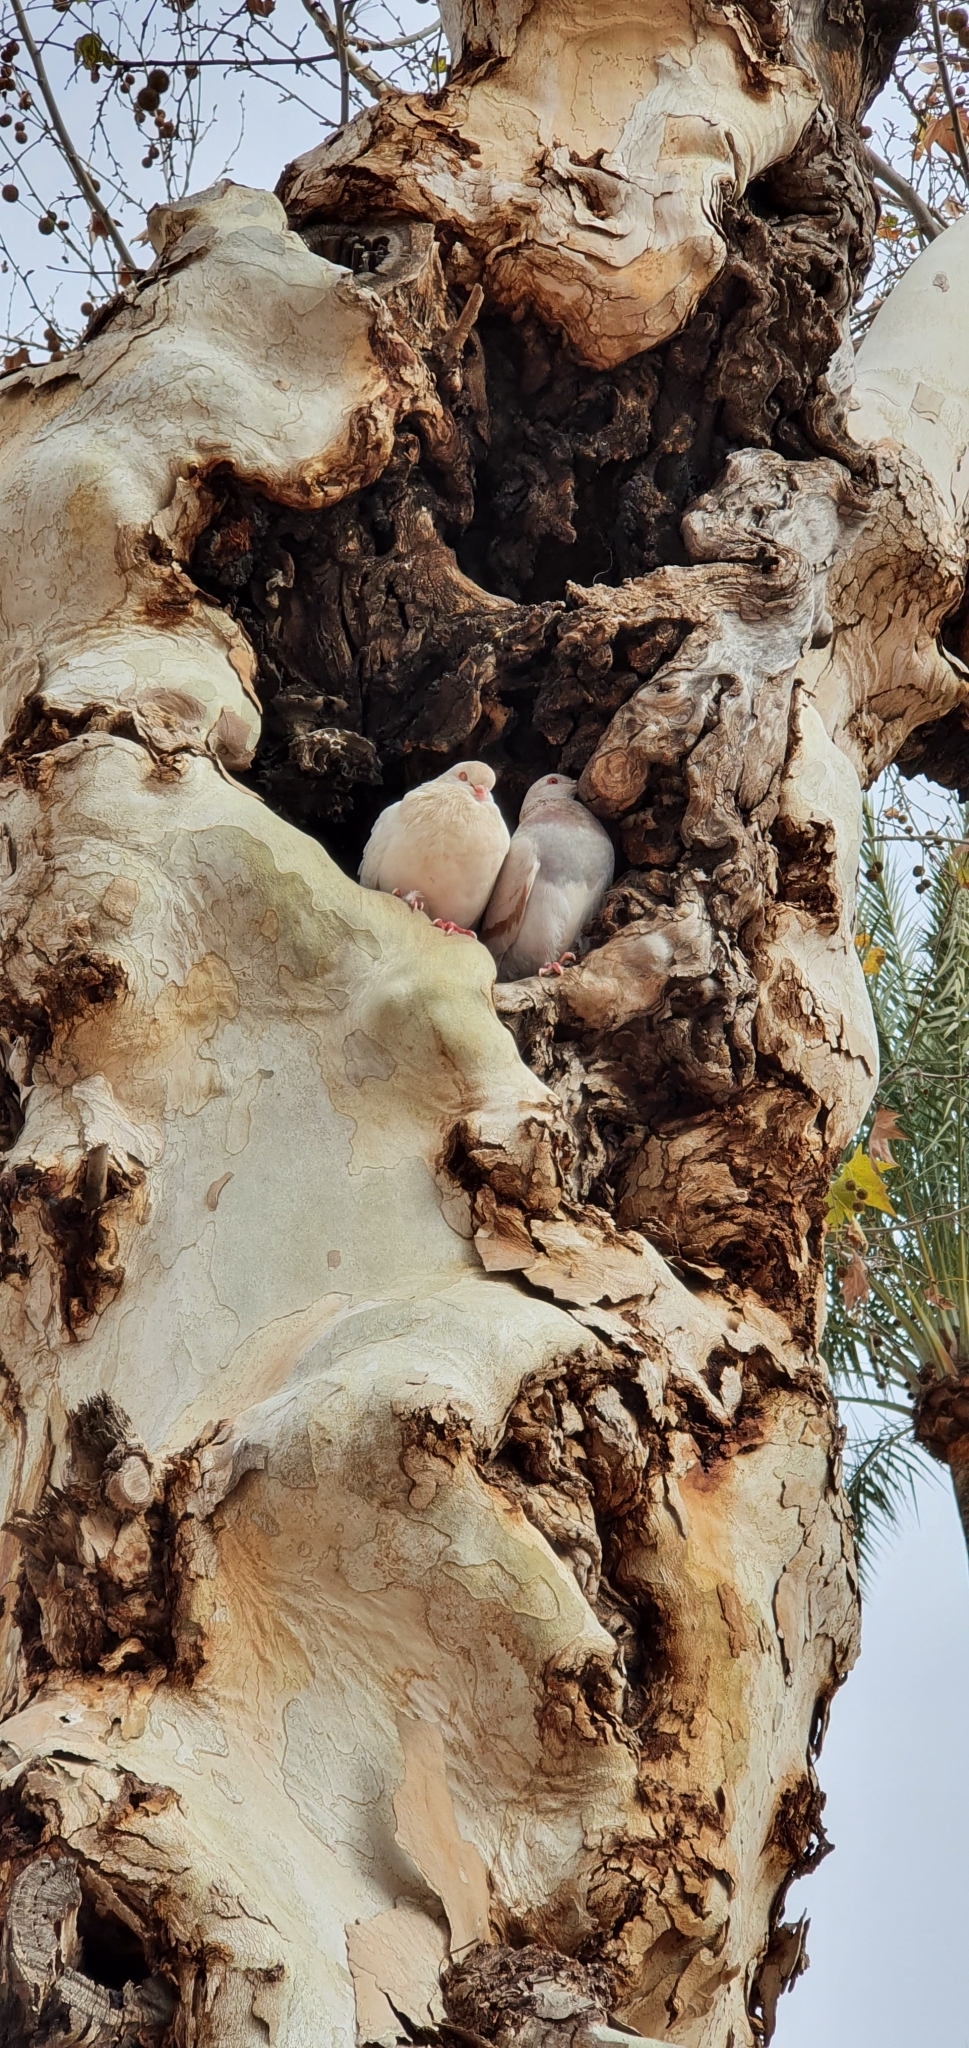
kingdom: Animalia
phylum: Chordata
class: Aves
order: Columbiformes
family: Columbidae
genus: Columba
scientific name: Columba livia
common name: Rock pigeon
